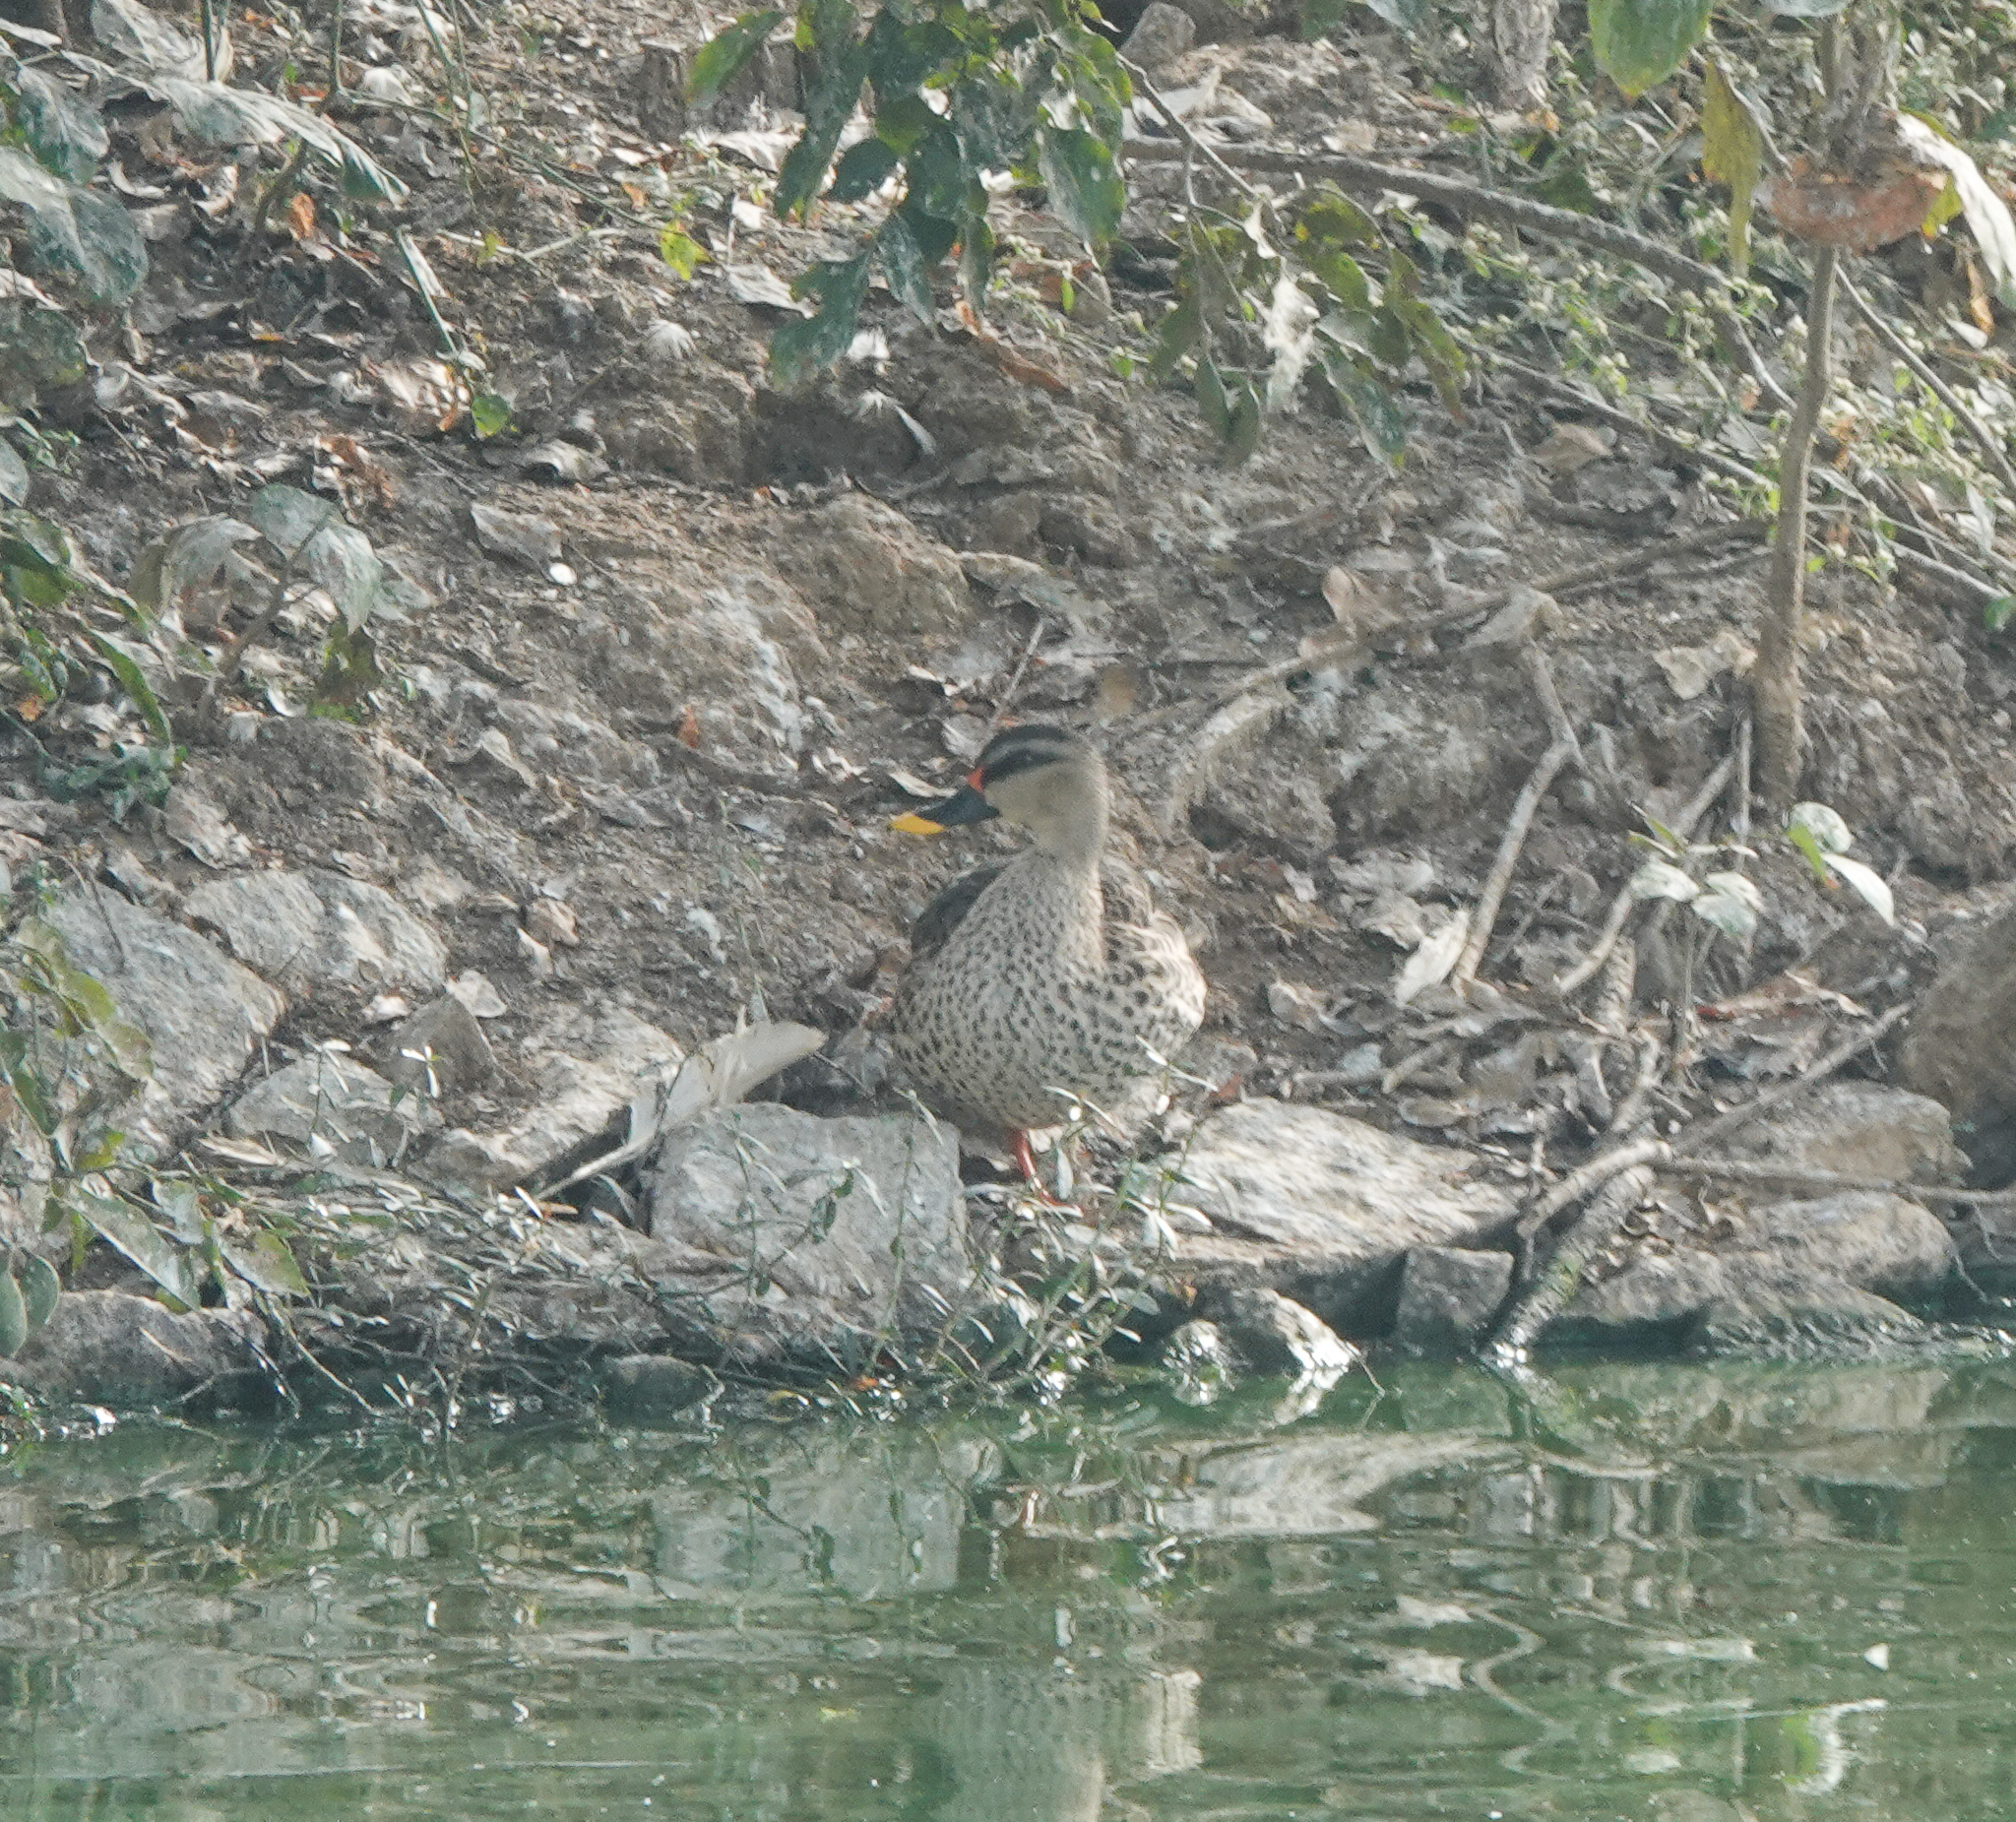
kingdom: Animalia
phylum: Chordata
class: Aves
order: Anseriformes
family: Anatidae
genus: Anas
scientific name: Anas poecilorhyncha
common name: Indian spot-billed duck
